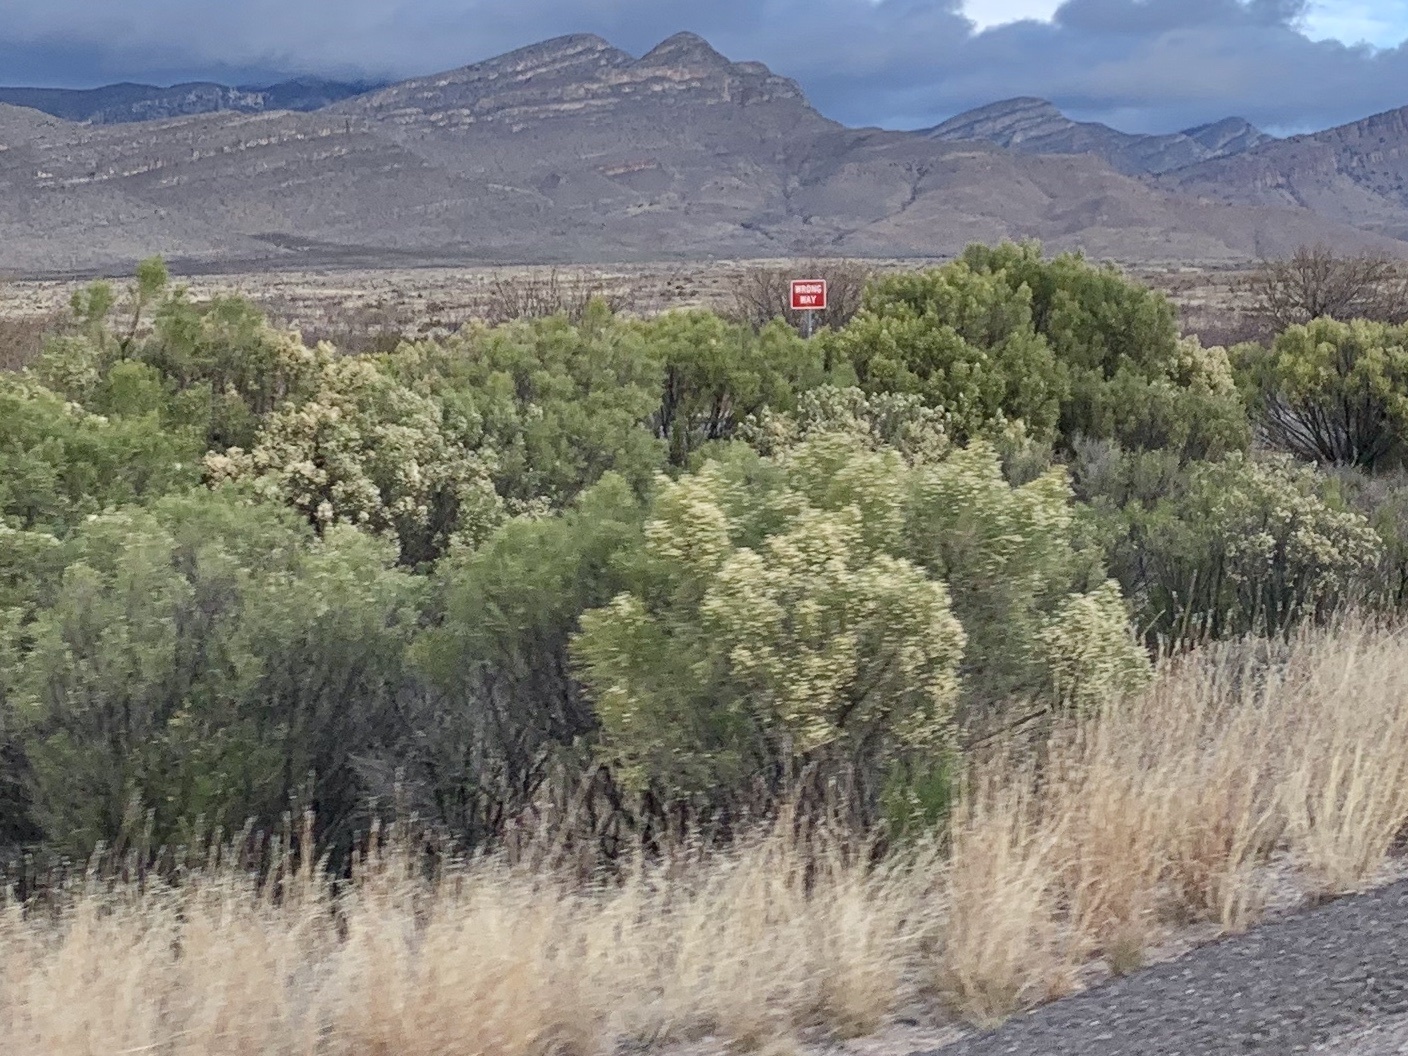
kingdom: Plantae
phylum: Tracheophyta
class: Magnoliopsida
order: Asterales
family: Asteraceae
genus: Baccharis
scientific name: Baccharis sarothroides
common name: Desert-broom
